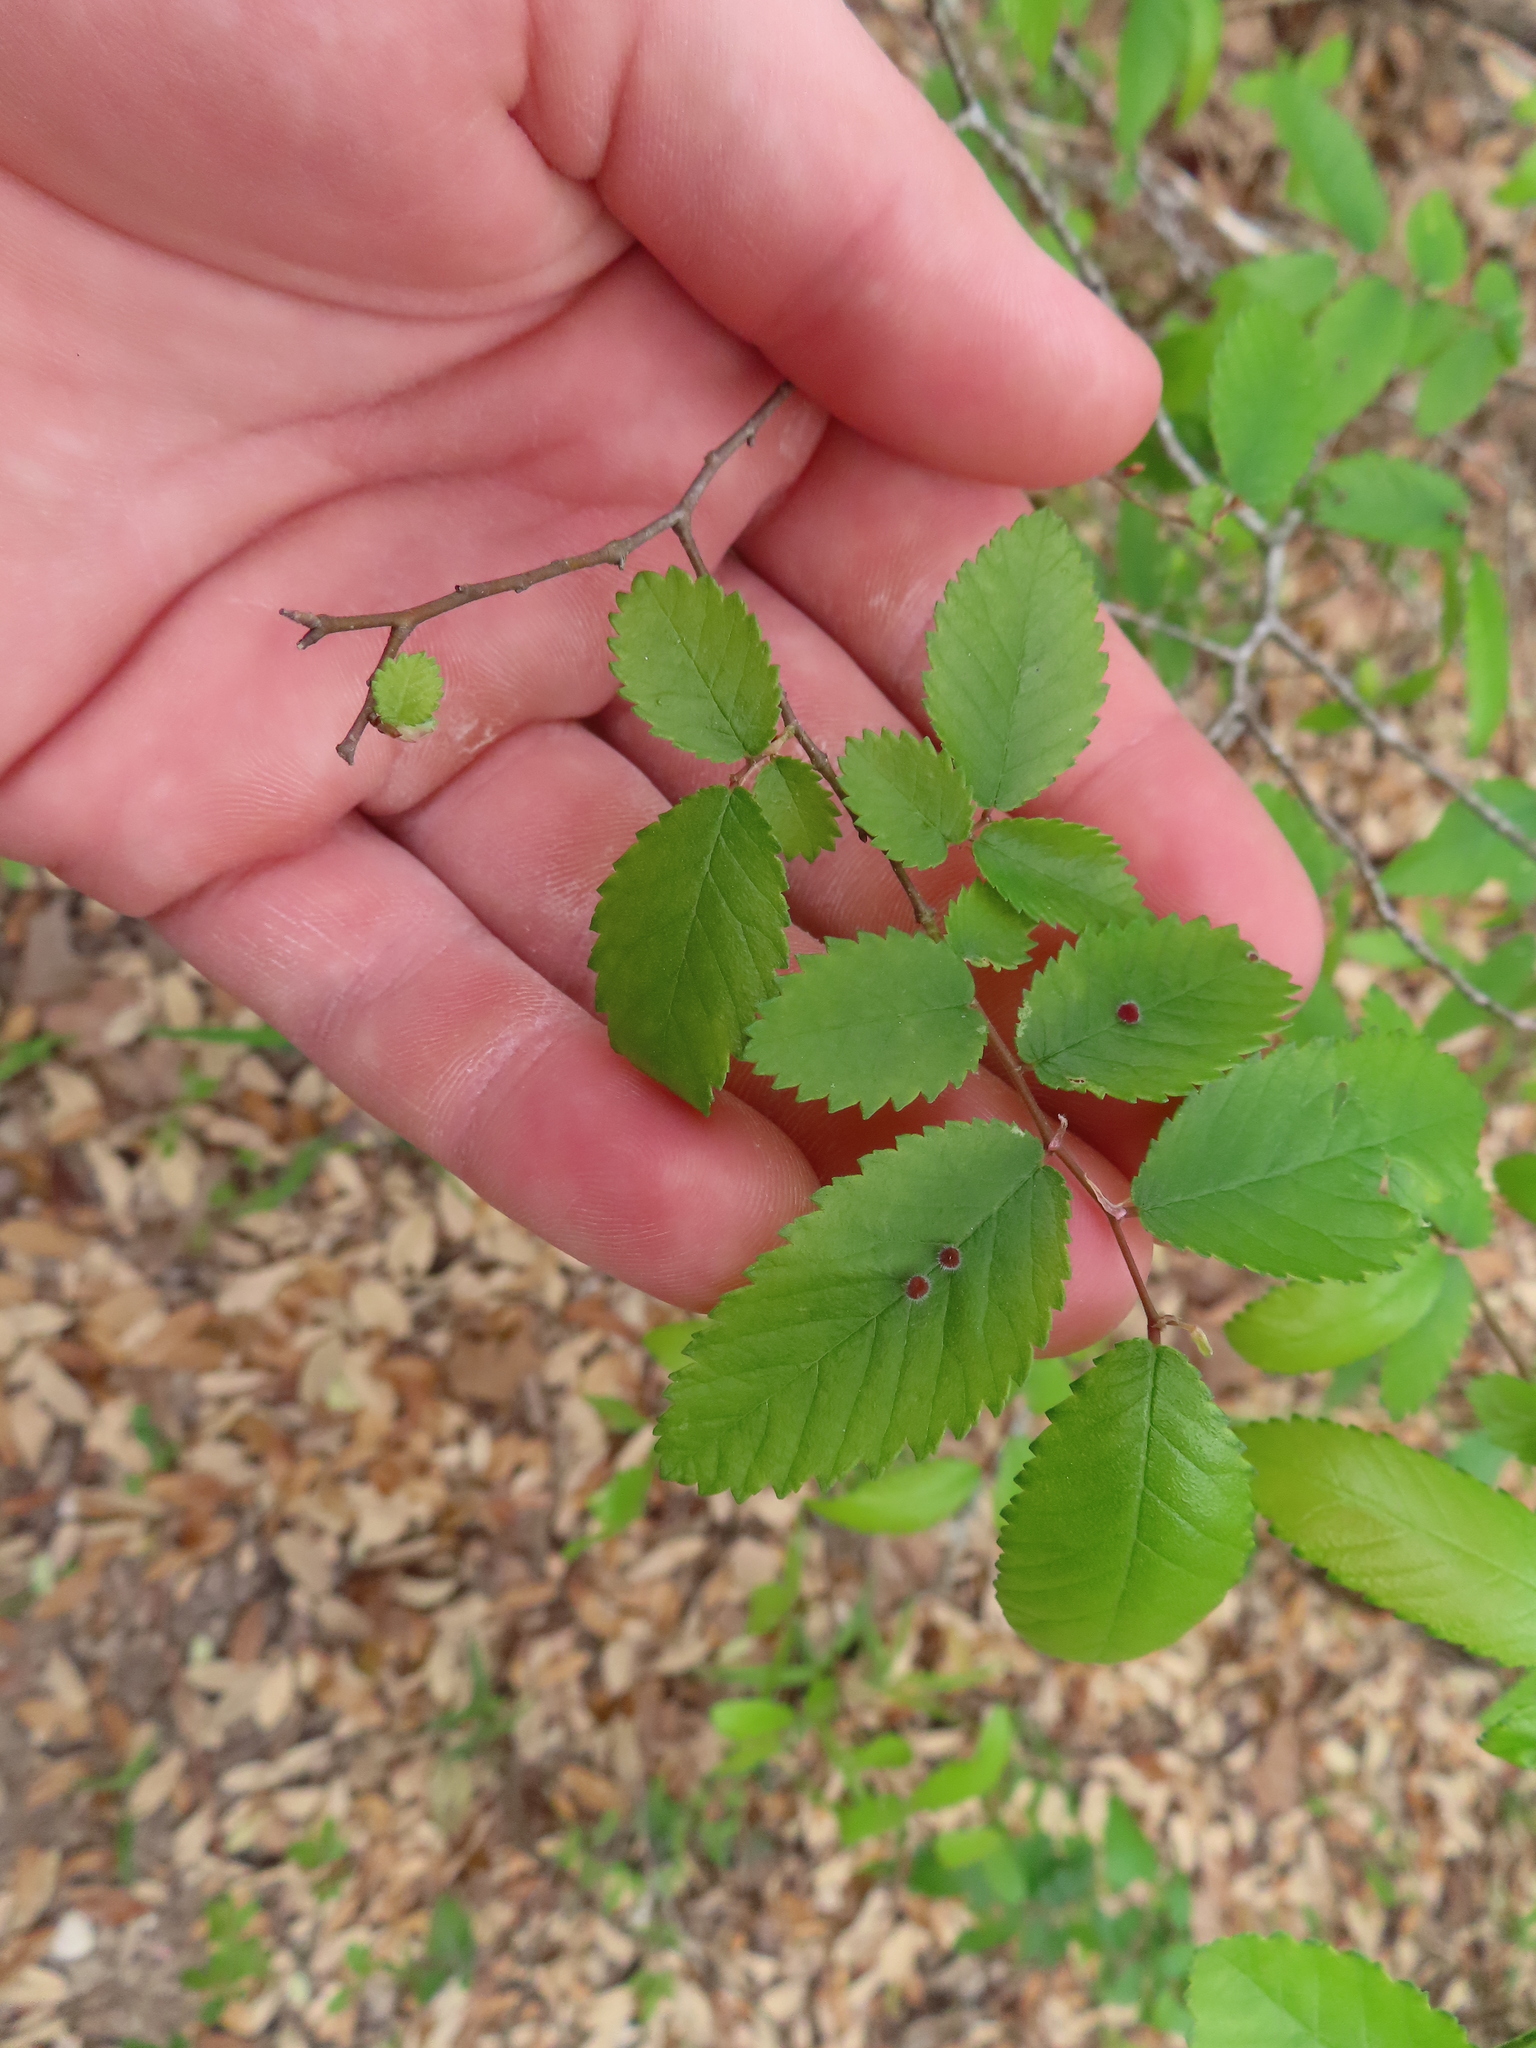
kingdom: Plantae
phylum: Tracheophyta
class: Magnoliopsida
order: Rosales
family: Ulmaceae
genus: Ulmus
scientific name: Ulmus crassifolia
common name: Basket elm
